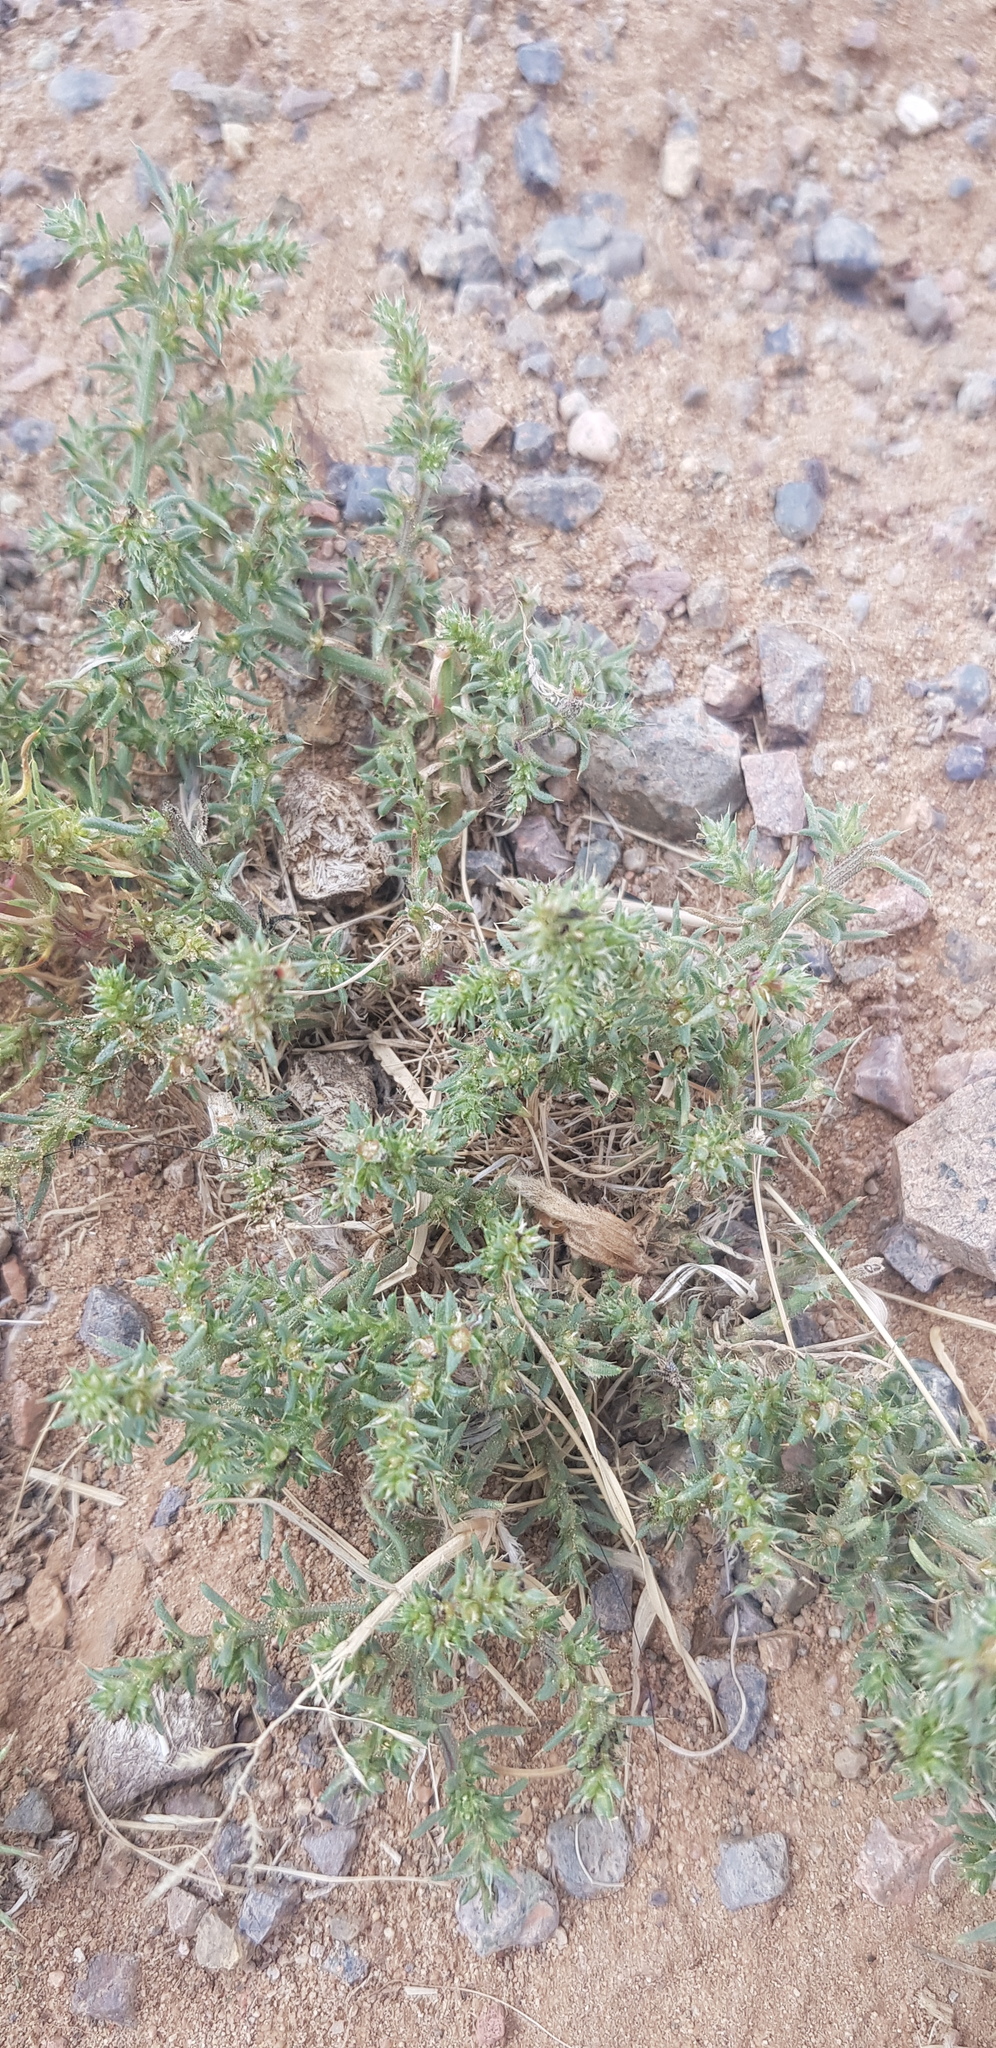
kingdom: Plantae
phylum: Tracheophyta
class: Magnoliopsida
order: Caryophyllales
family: Amaranthaceae
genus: Salsola
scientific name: Salsola collina
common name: Tumbleweed
